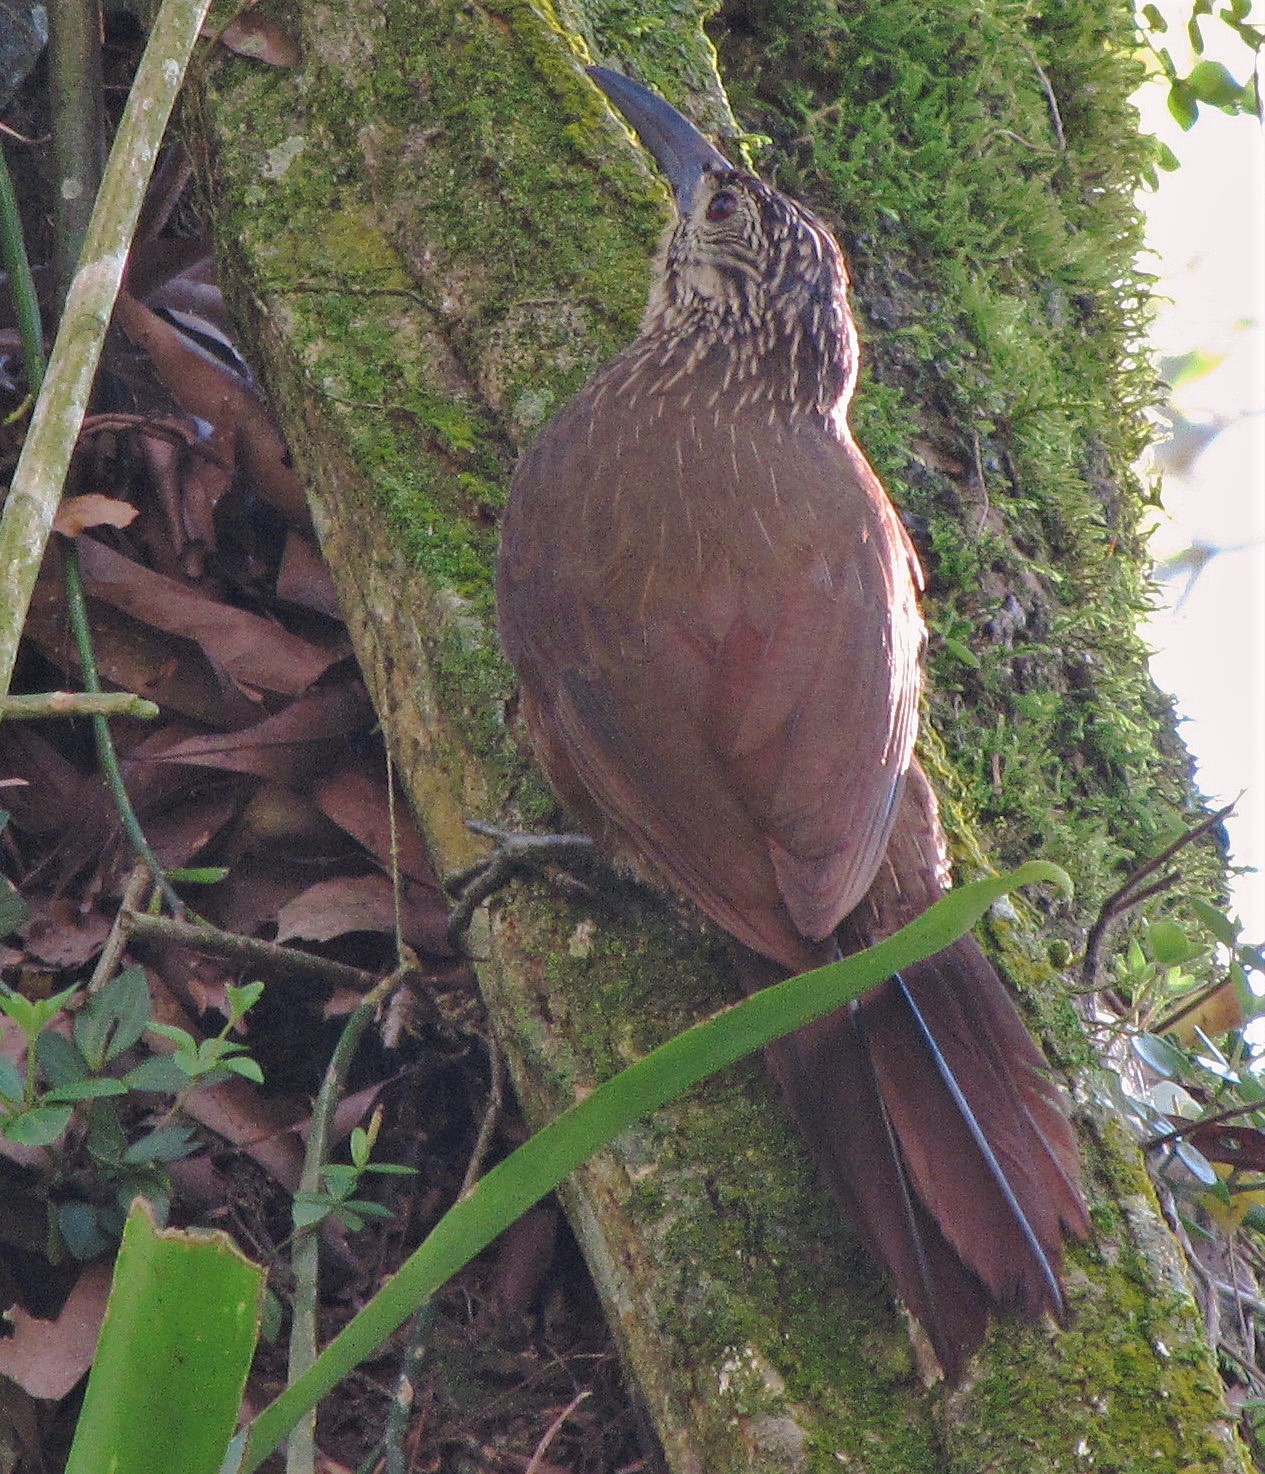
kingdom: Animalia
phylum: Chordata
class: Aves
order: Passeriformes
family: Furnariidae
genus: Xiphocolaptes
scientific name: Xiphocolaptes albicollis
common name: White-throated woodcreeper
